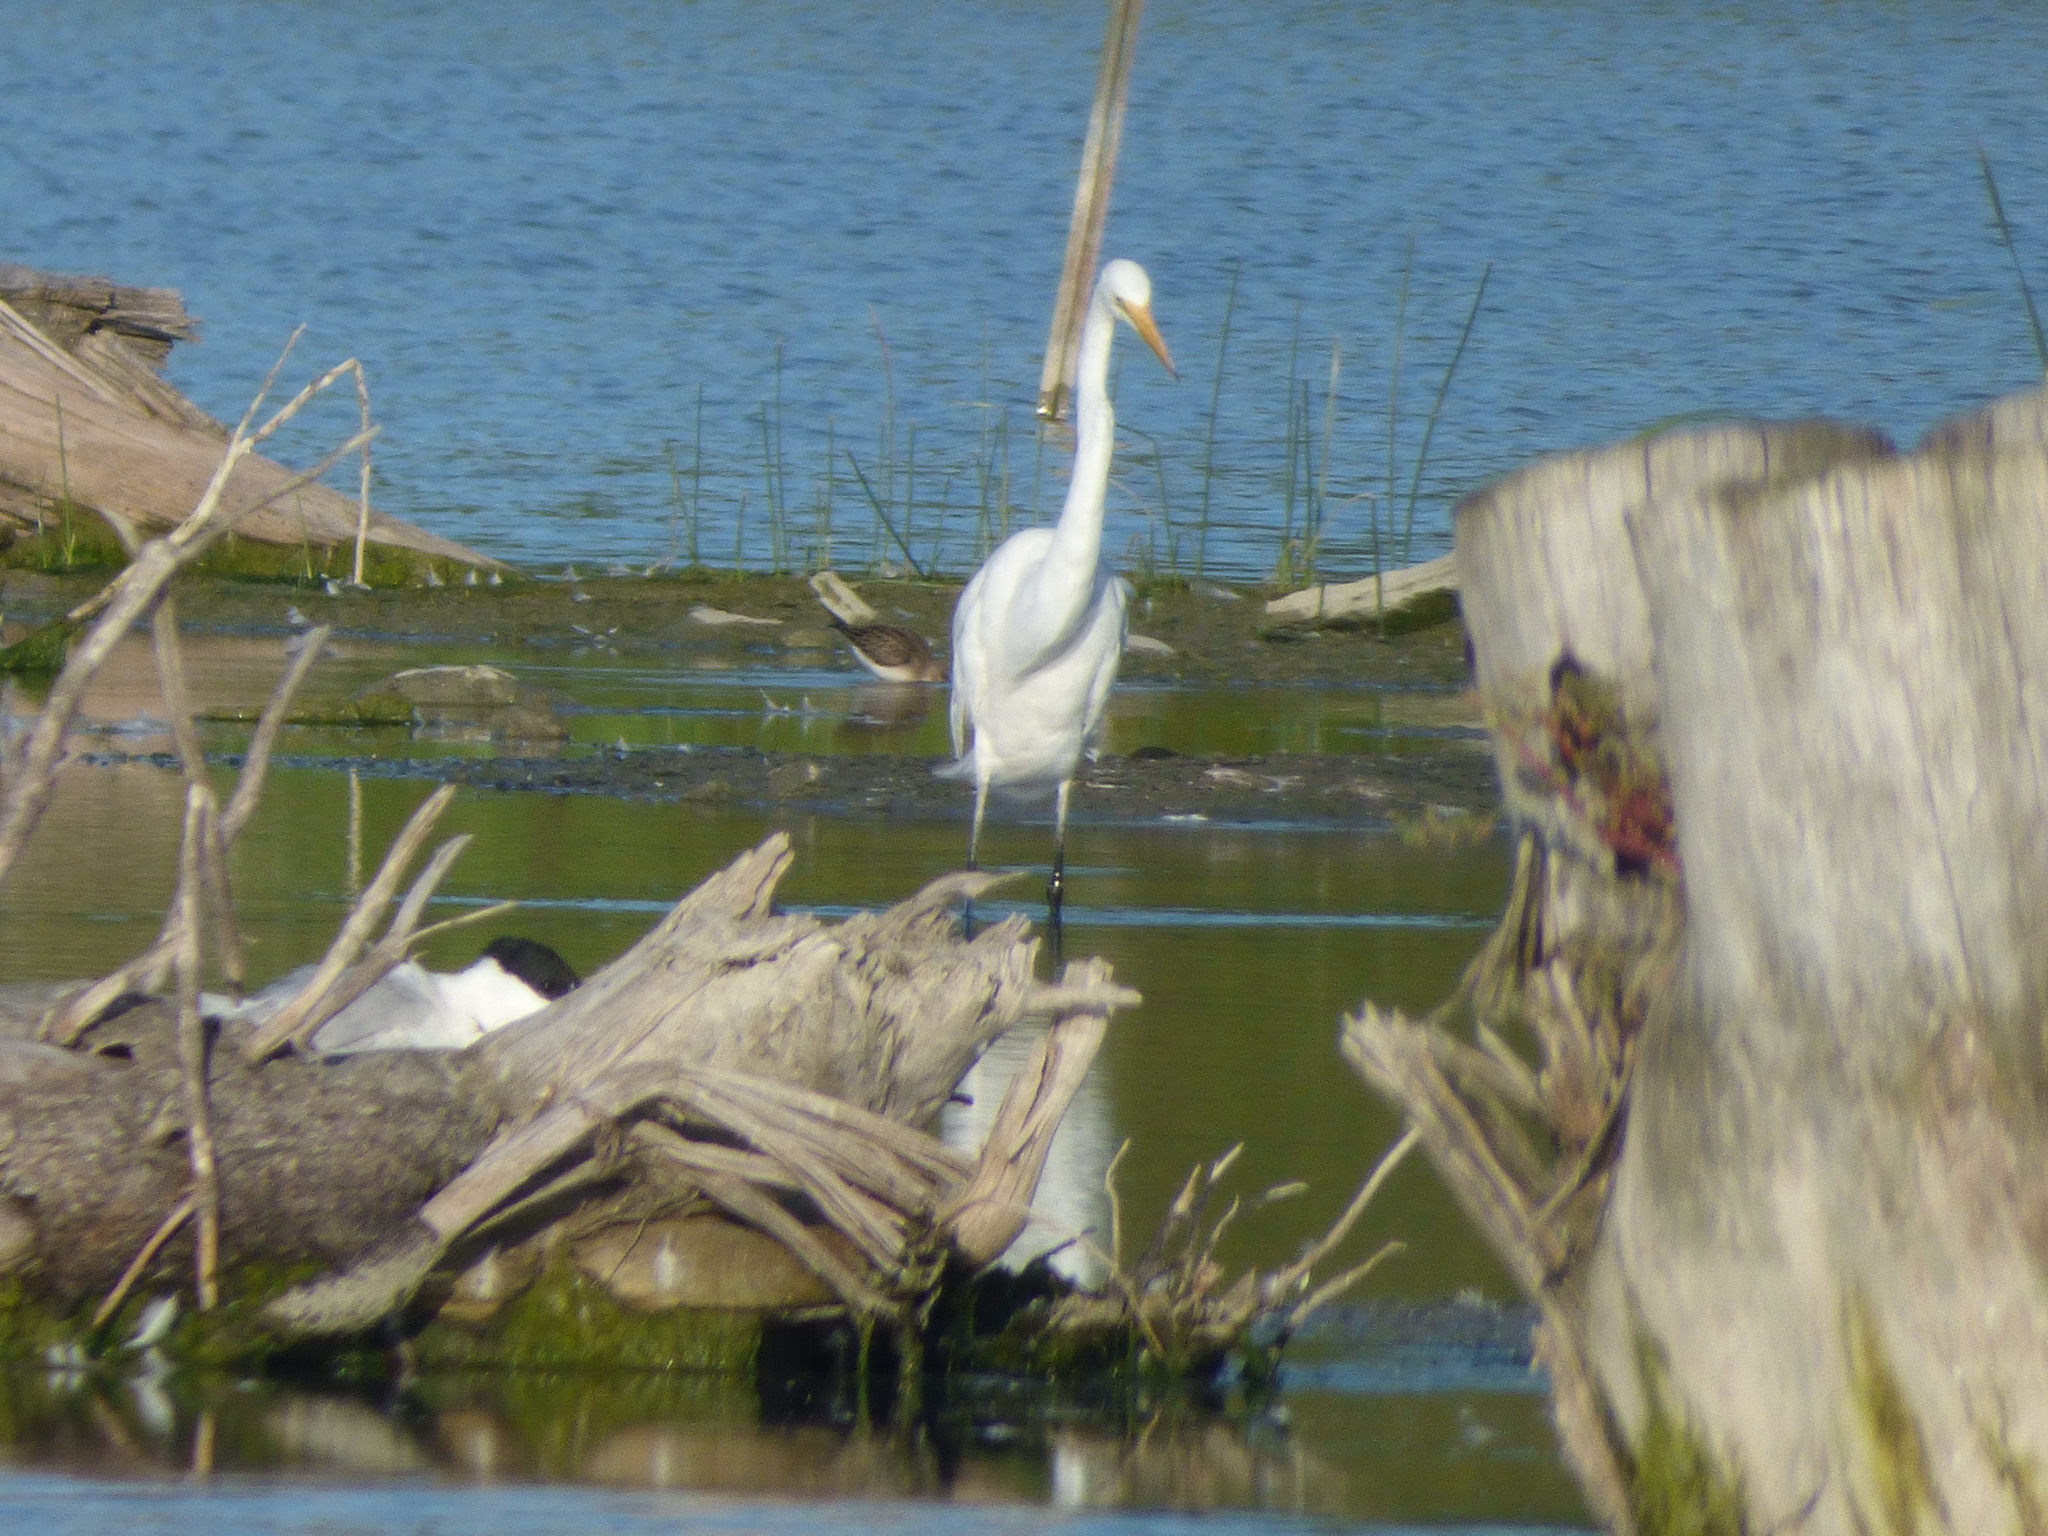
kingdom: Animalia
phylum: Chordata
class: Aves
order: Pelecaniformes
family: Ardeidae
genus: Ardea
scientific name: Ardea alba
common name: Great egret
